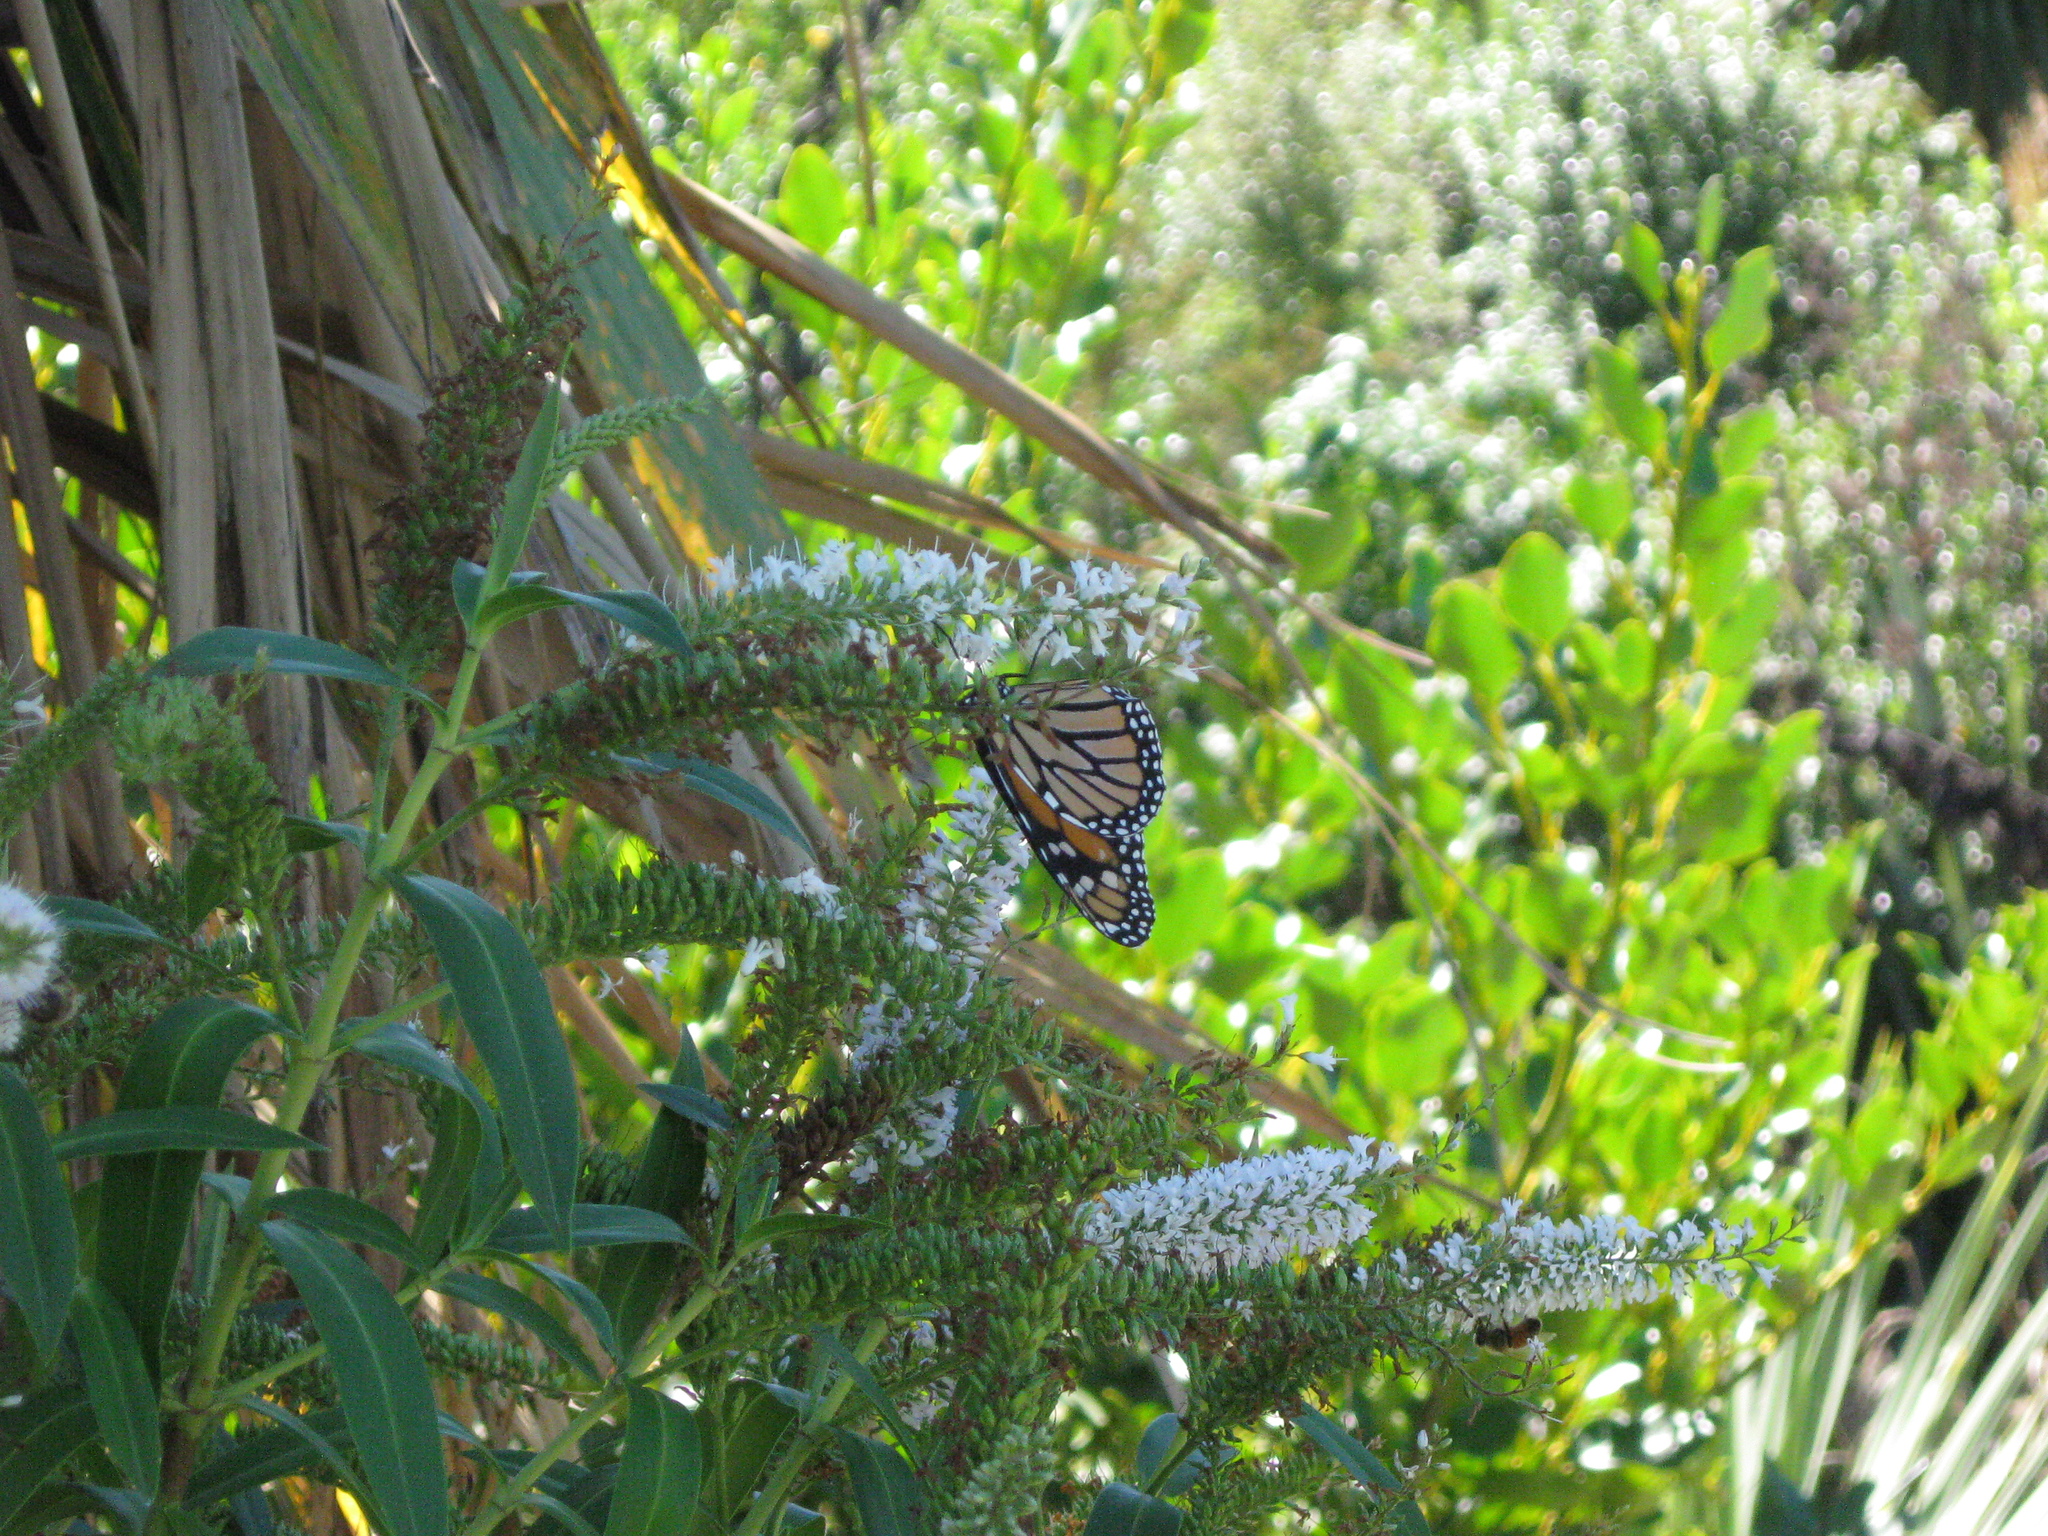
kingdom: Animalia
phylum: Arthropoda
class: Insecta
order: Lepidoptera
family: Nymphalidae
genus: Danaus
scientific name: Danaus plexippus
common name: Monarch
